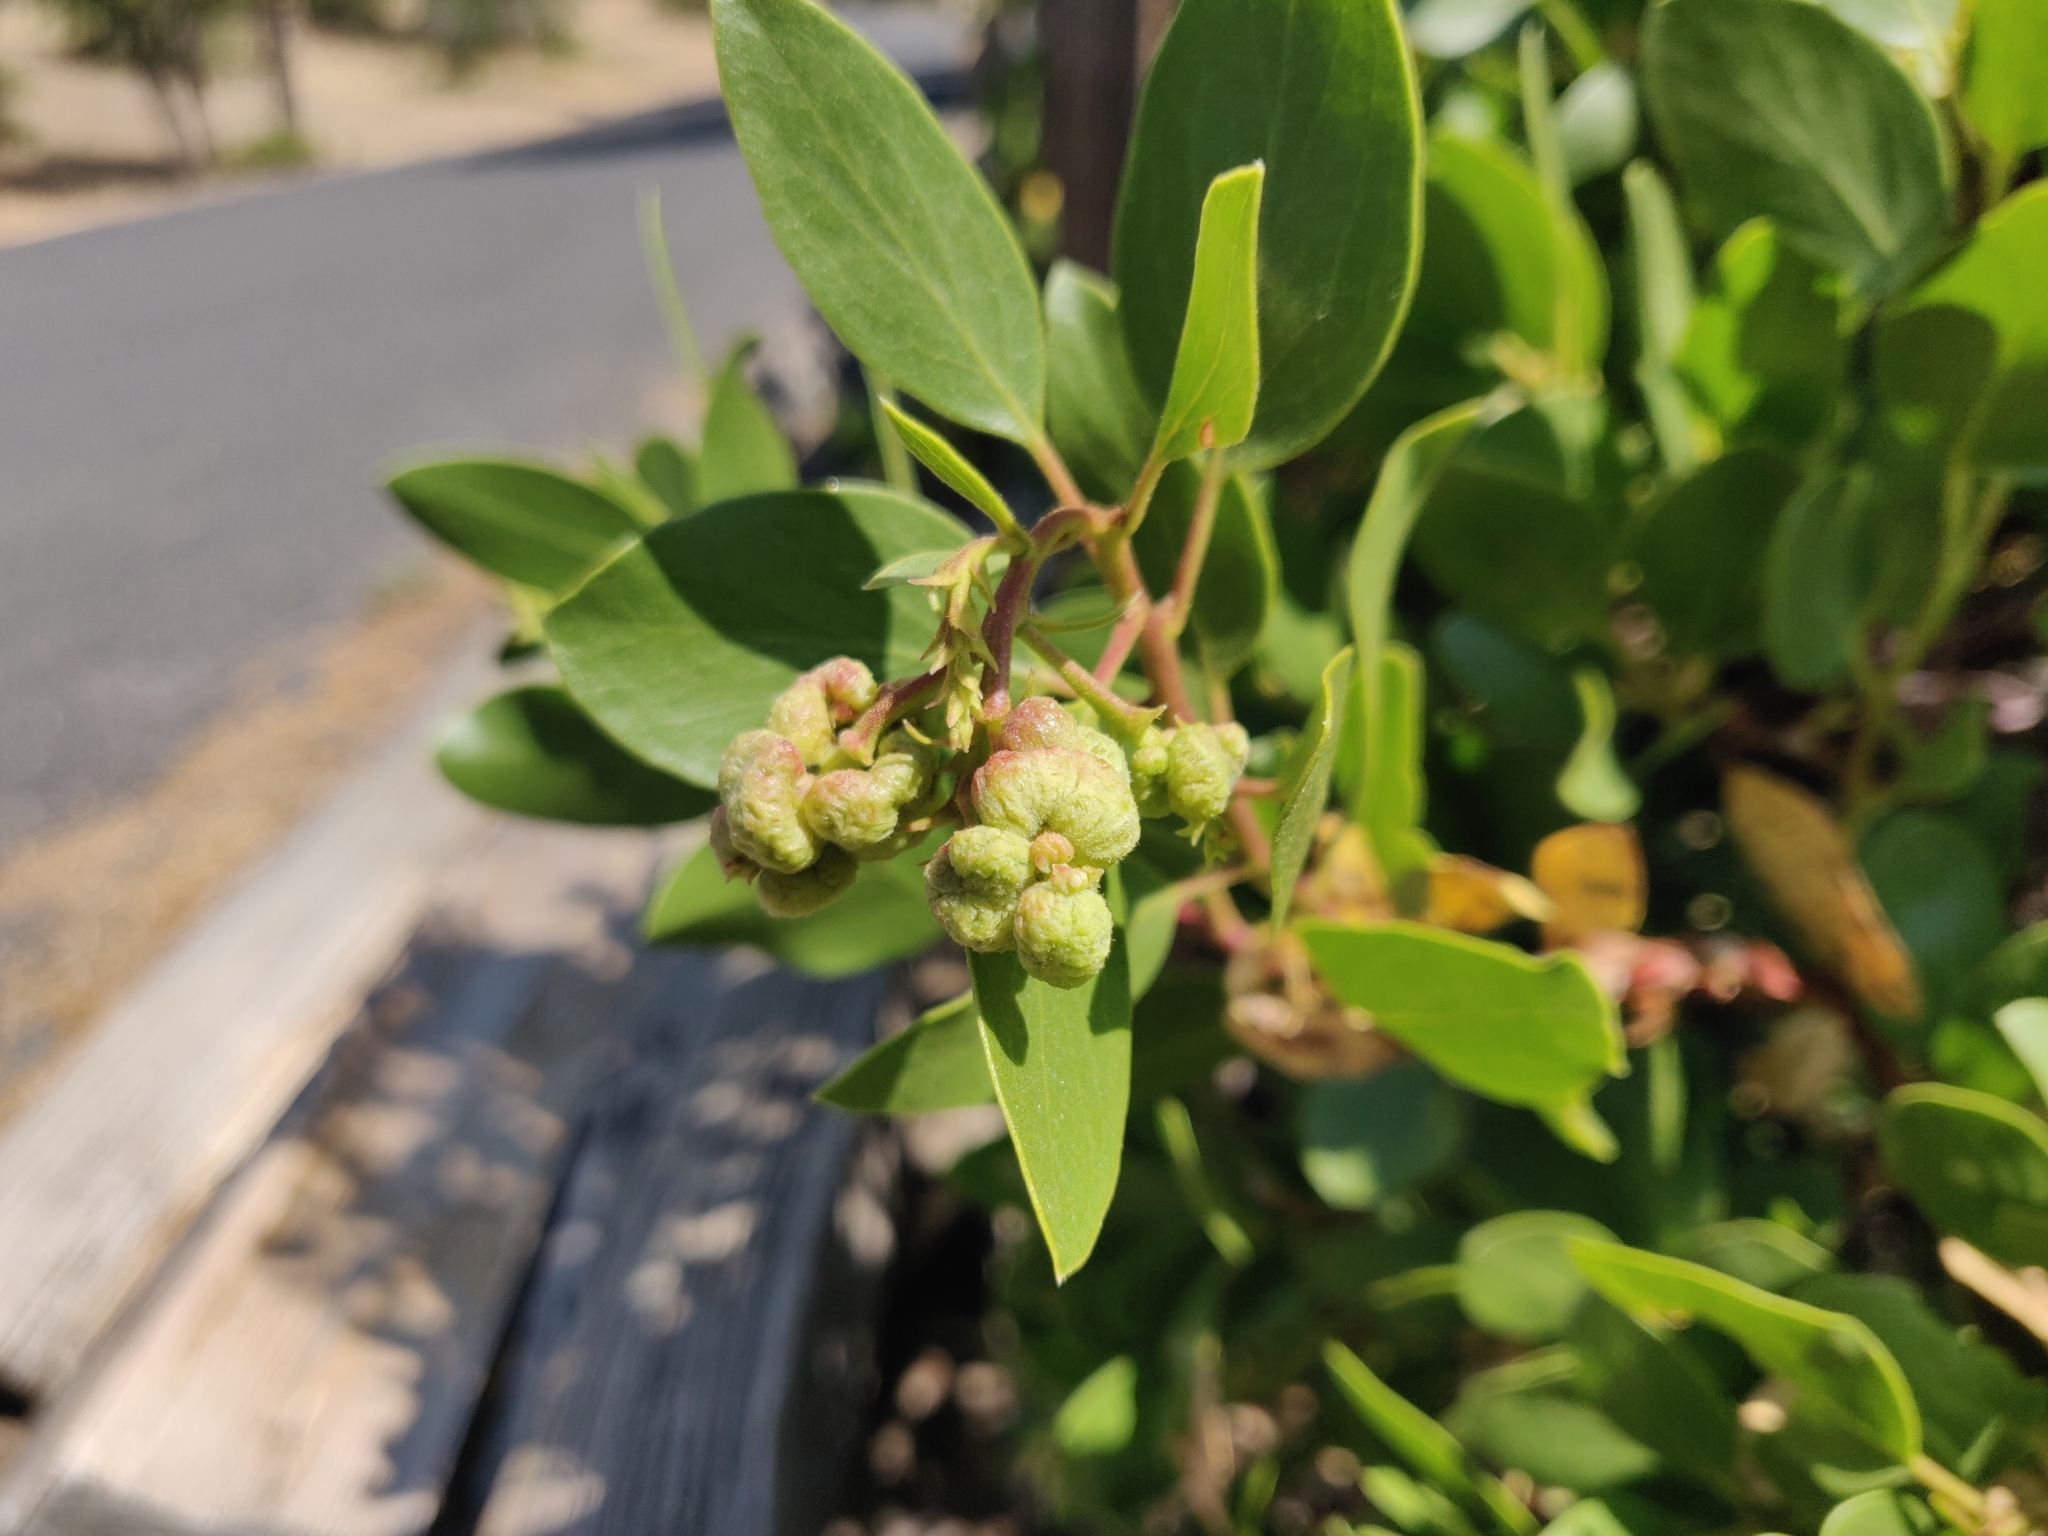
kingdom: Animalia
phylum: Arthropoda
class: Insecta
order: Hemiptera
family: Aphididae
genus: Tamalia
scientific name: Tamalia coweni
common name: Manzanita leafgall aphid
